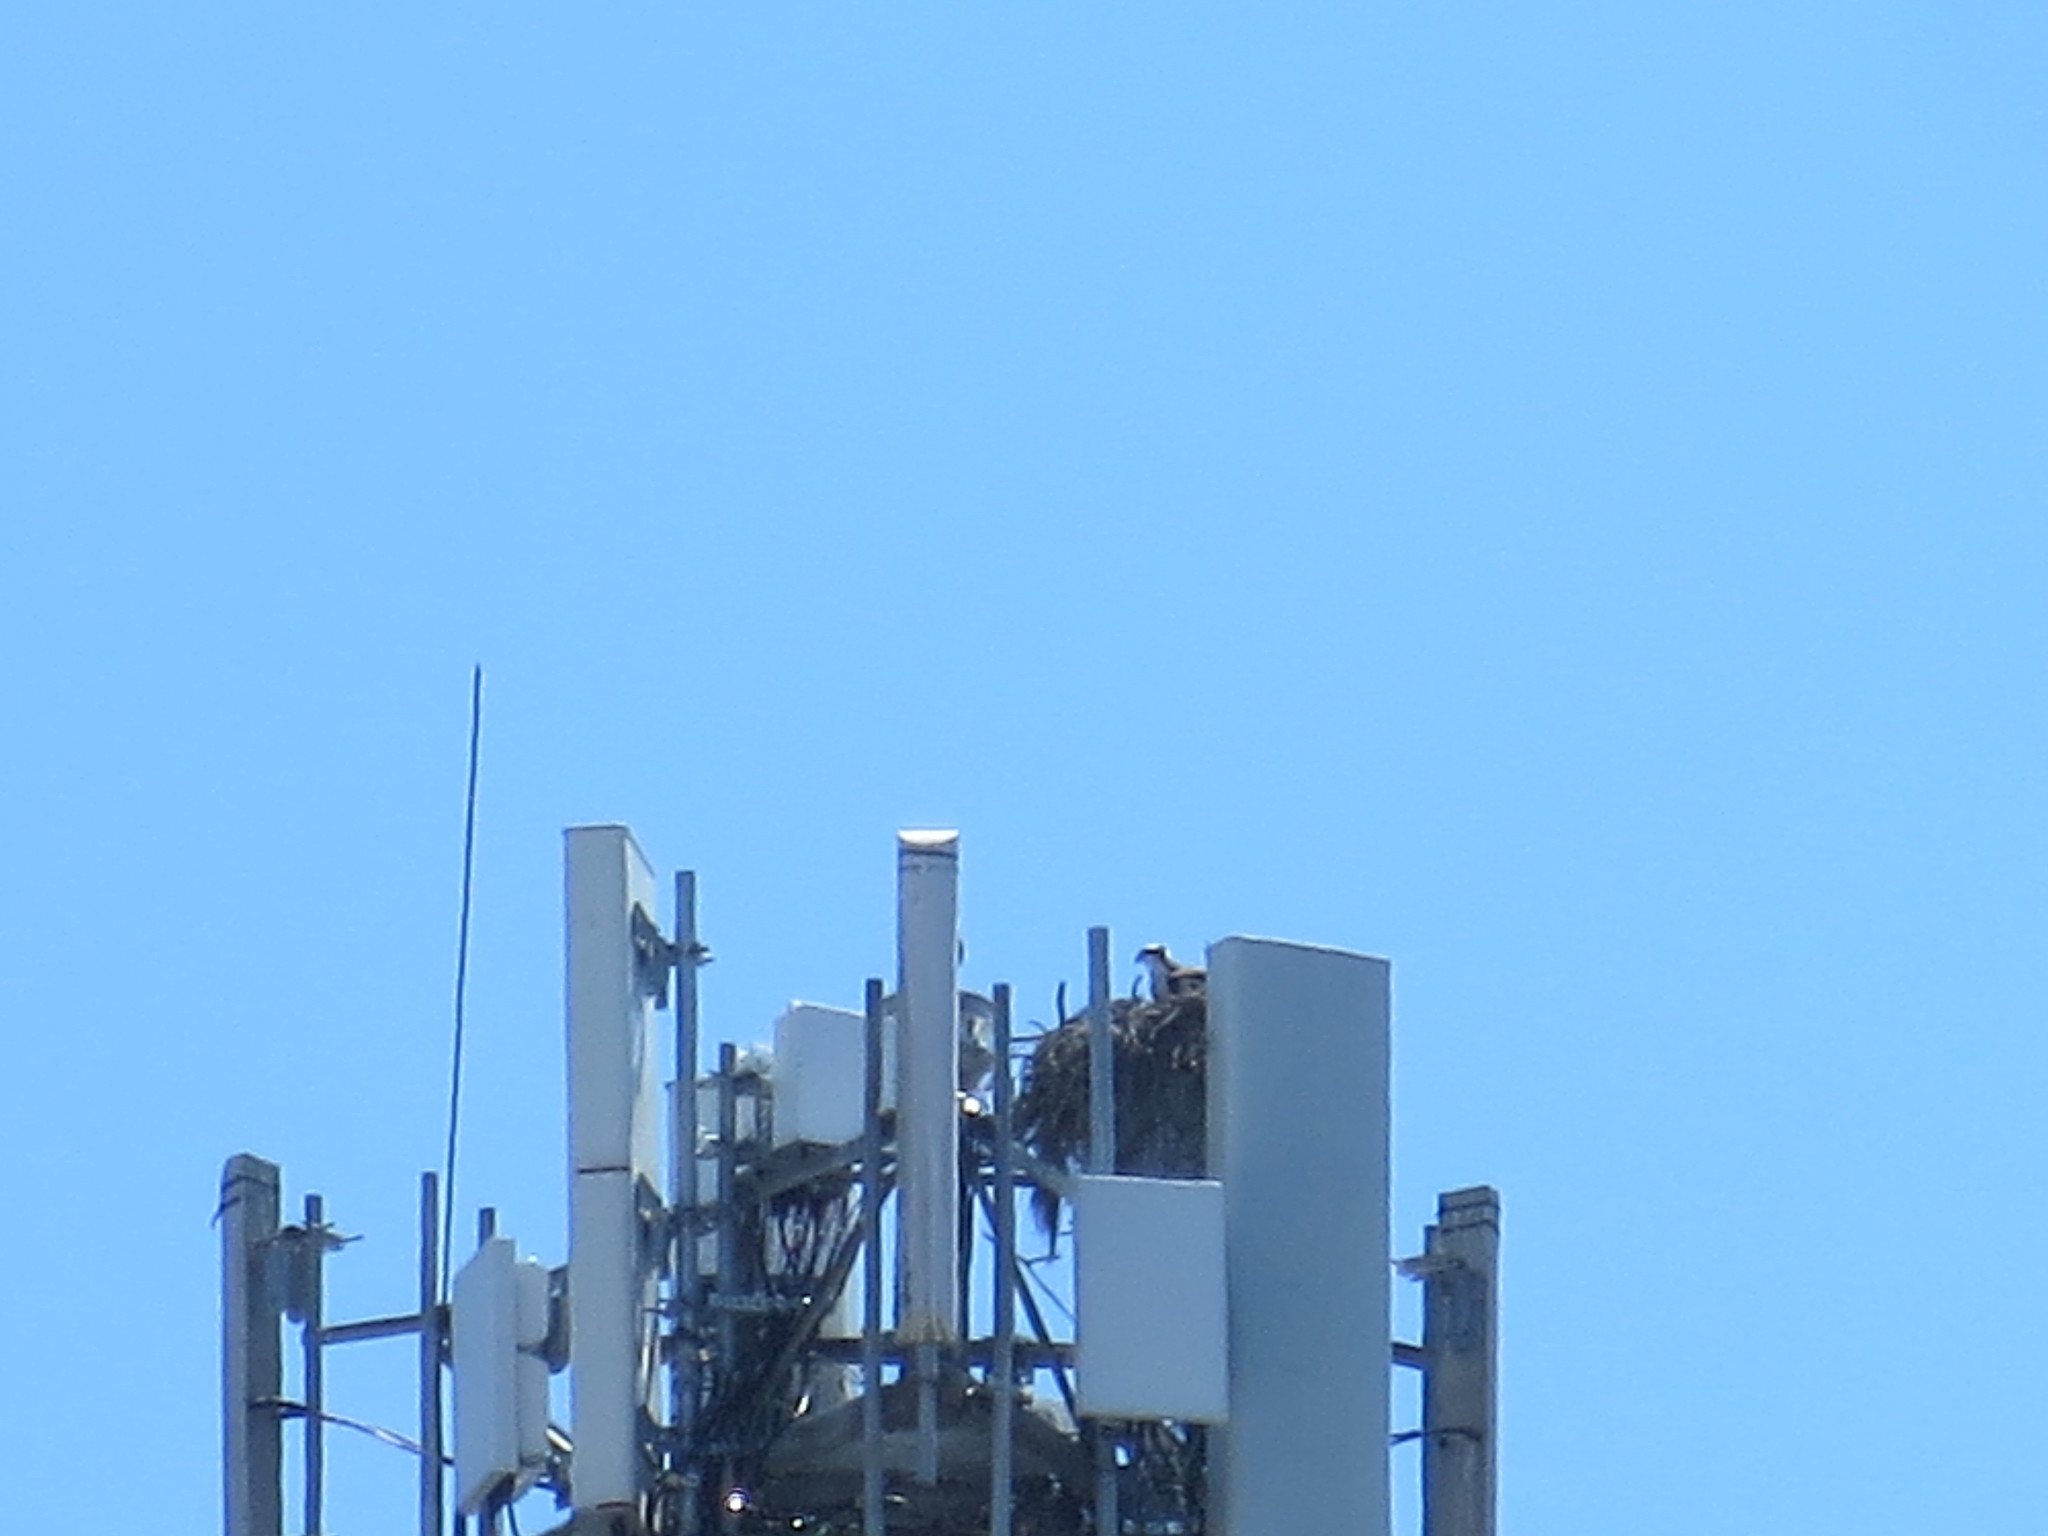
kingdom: Animalia
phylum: Chordata
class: Aves
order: Accipitriformes
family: Pandionidae
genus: Pandion
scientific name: Pandion haliaetus
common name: Osprey
